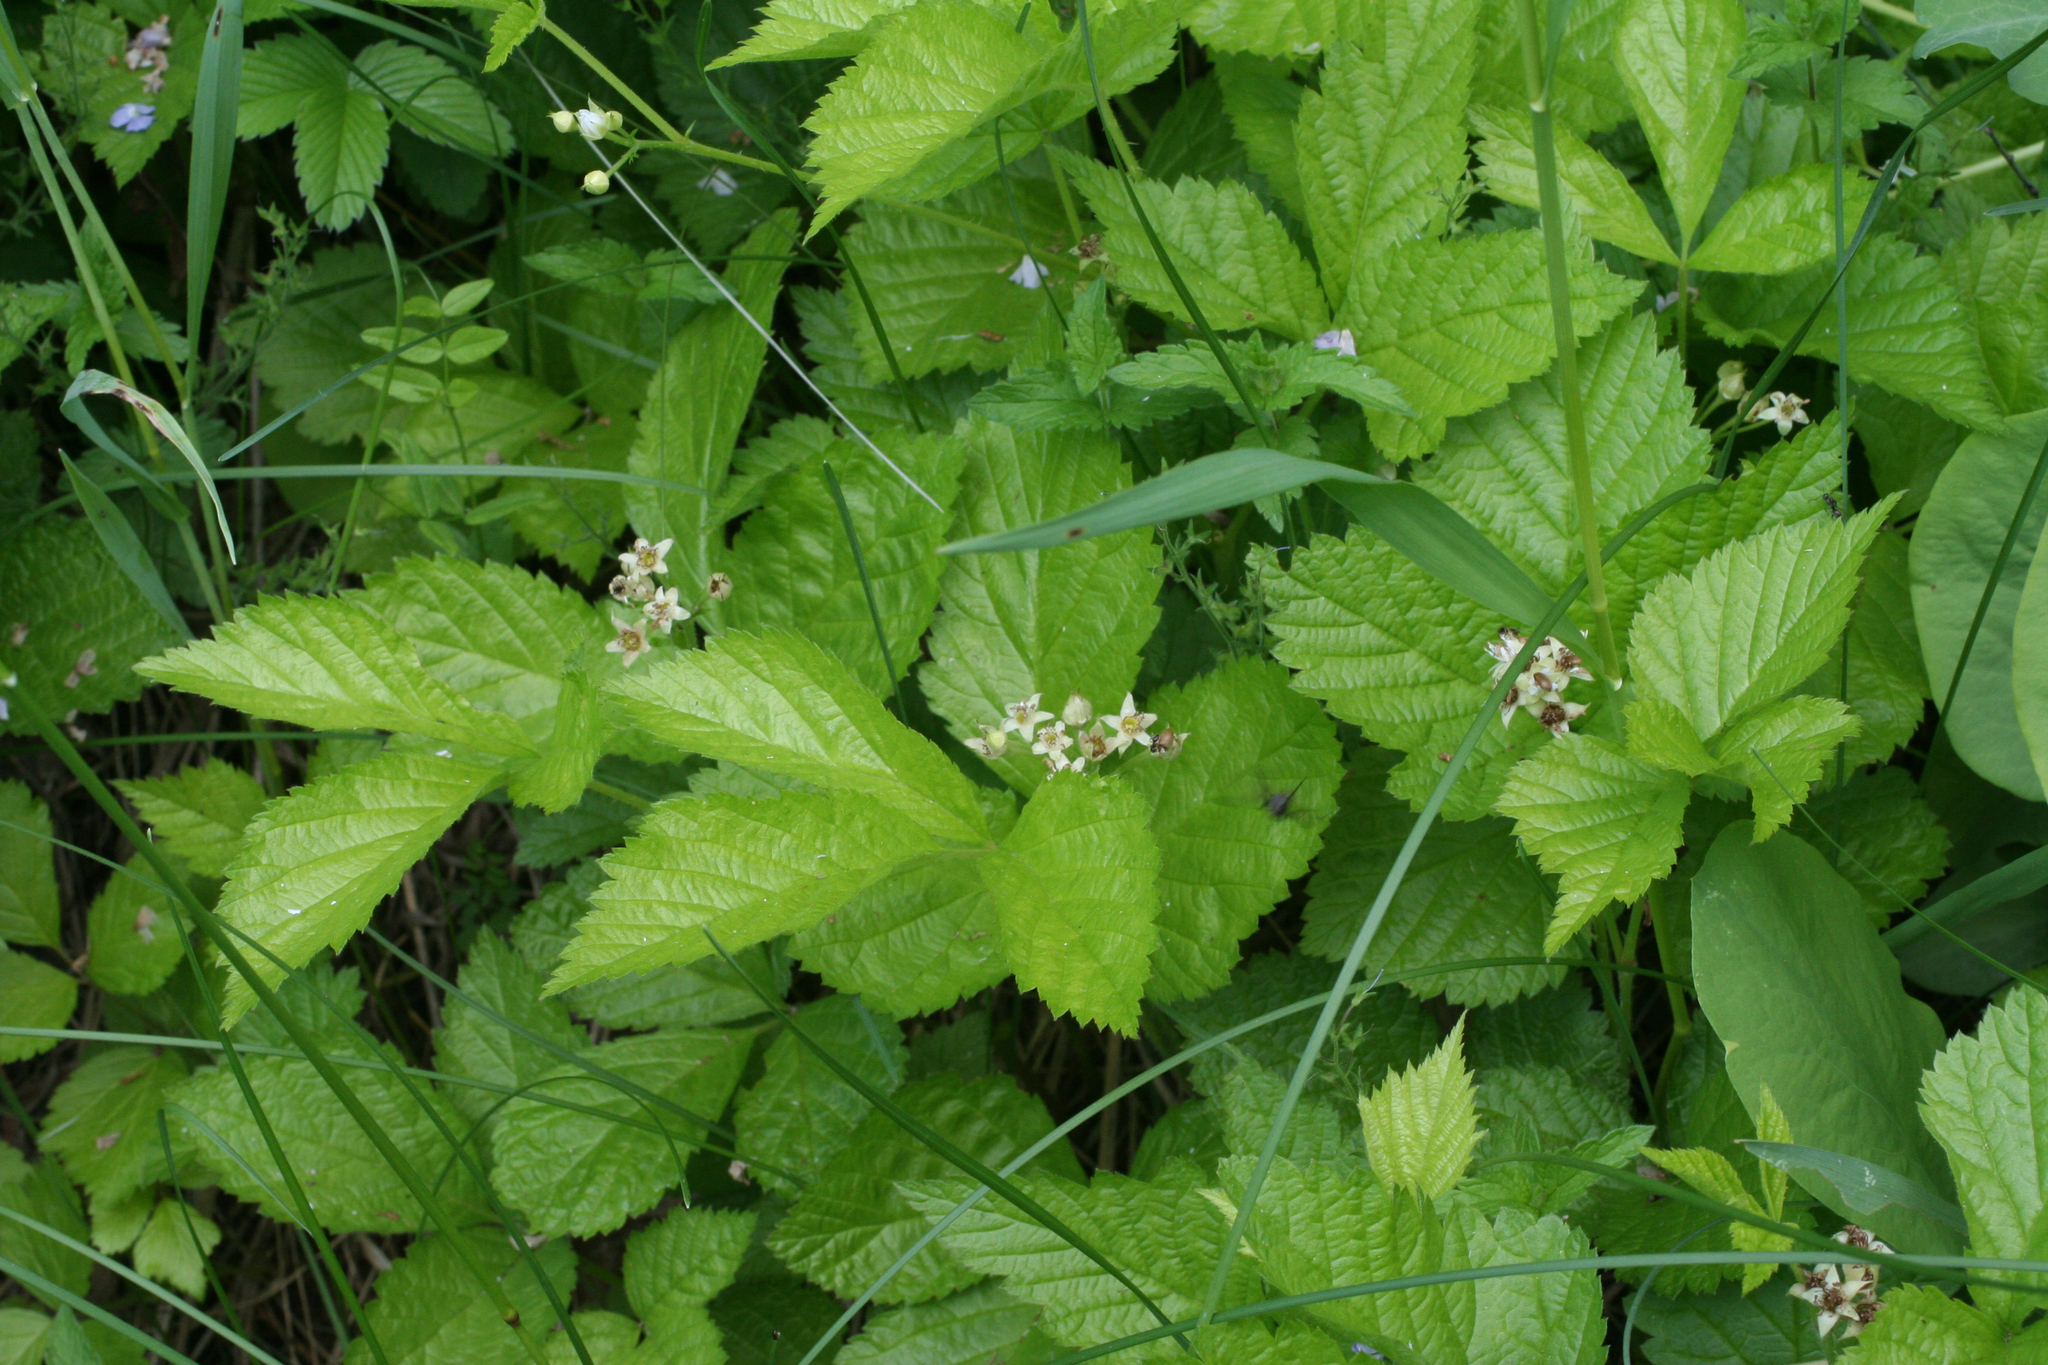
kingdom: Plantae
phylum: Tracheophyta
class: Magnoliopsida
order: Rosales
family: Rosaceae
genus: Rubus
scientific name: Rubus saxatilis
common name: Stone bramble
